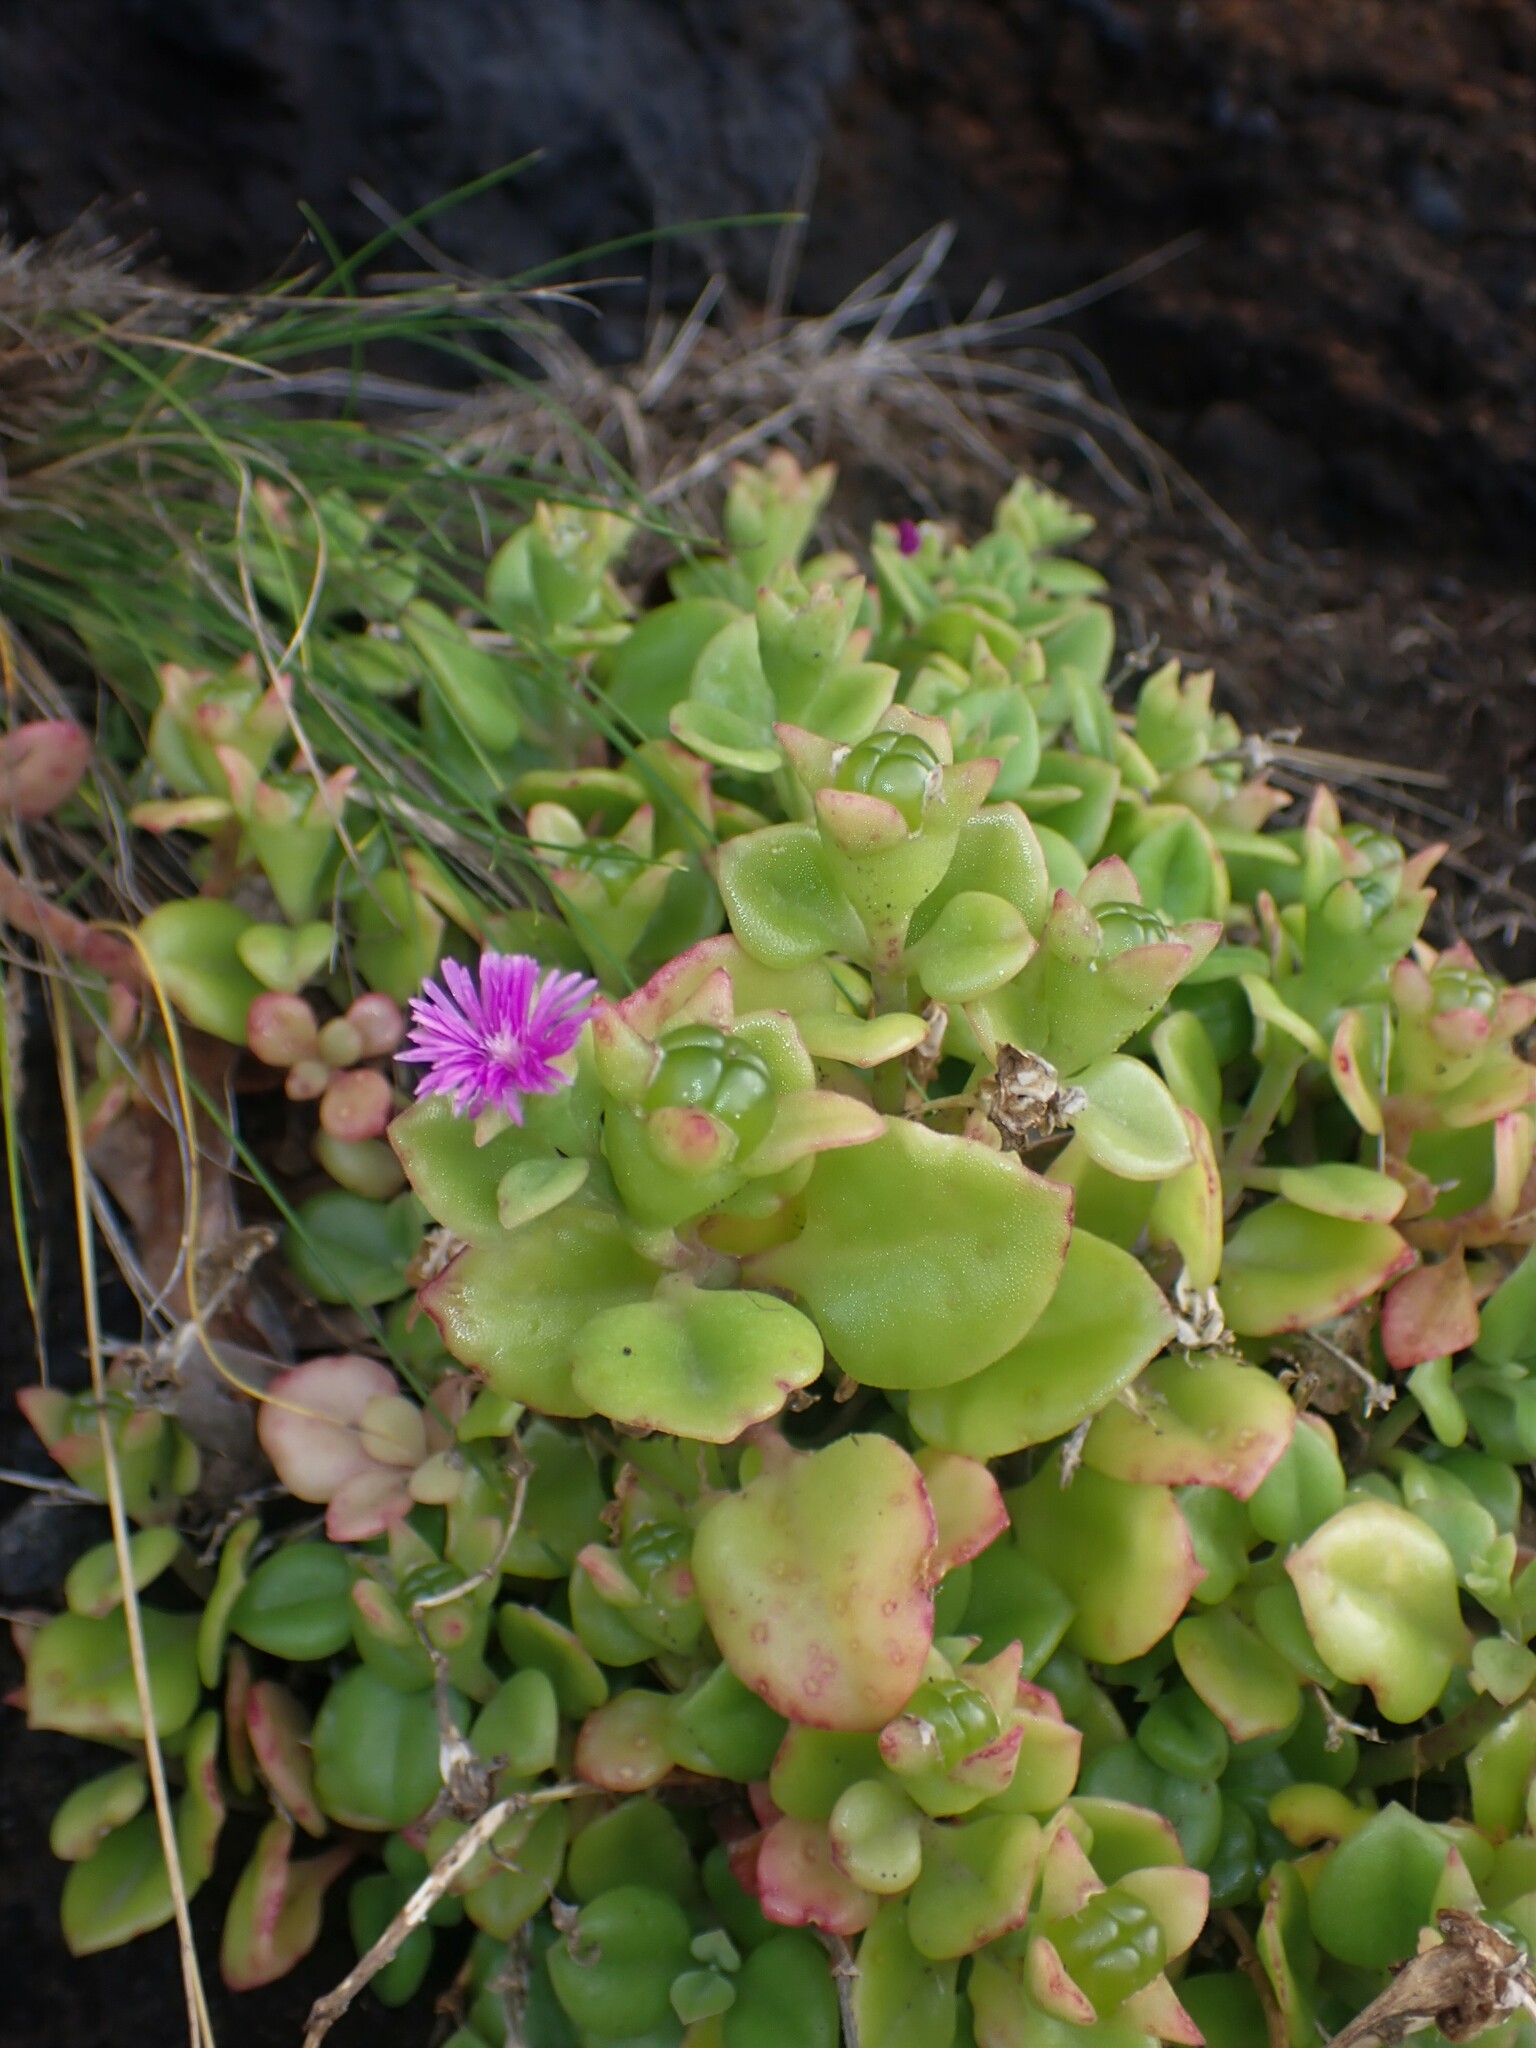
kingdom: Plantae
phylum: Tracheophyta
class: Magnoliopsida
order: Caryophyllales
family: Aizoaceae
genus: Mesembryanthemum
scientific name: Mesembryanthemum cordifolium
